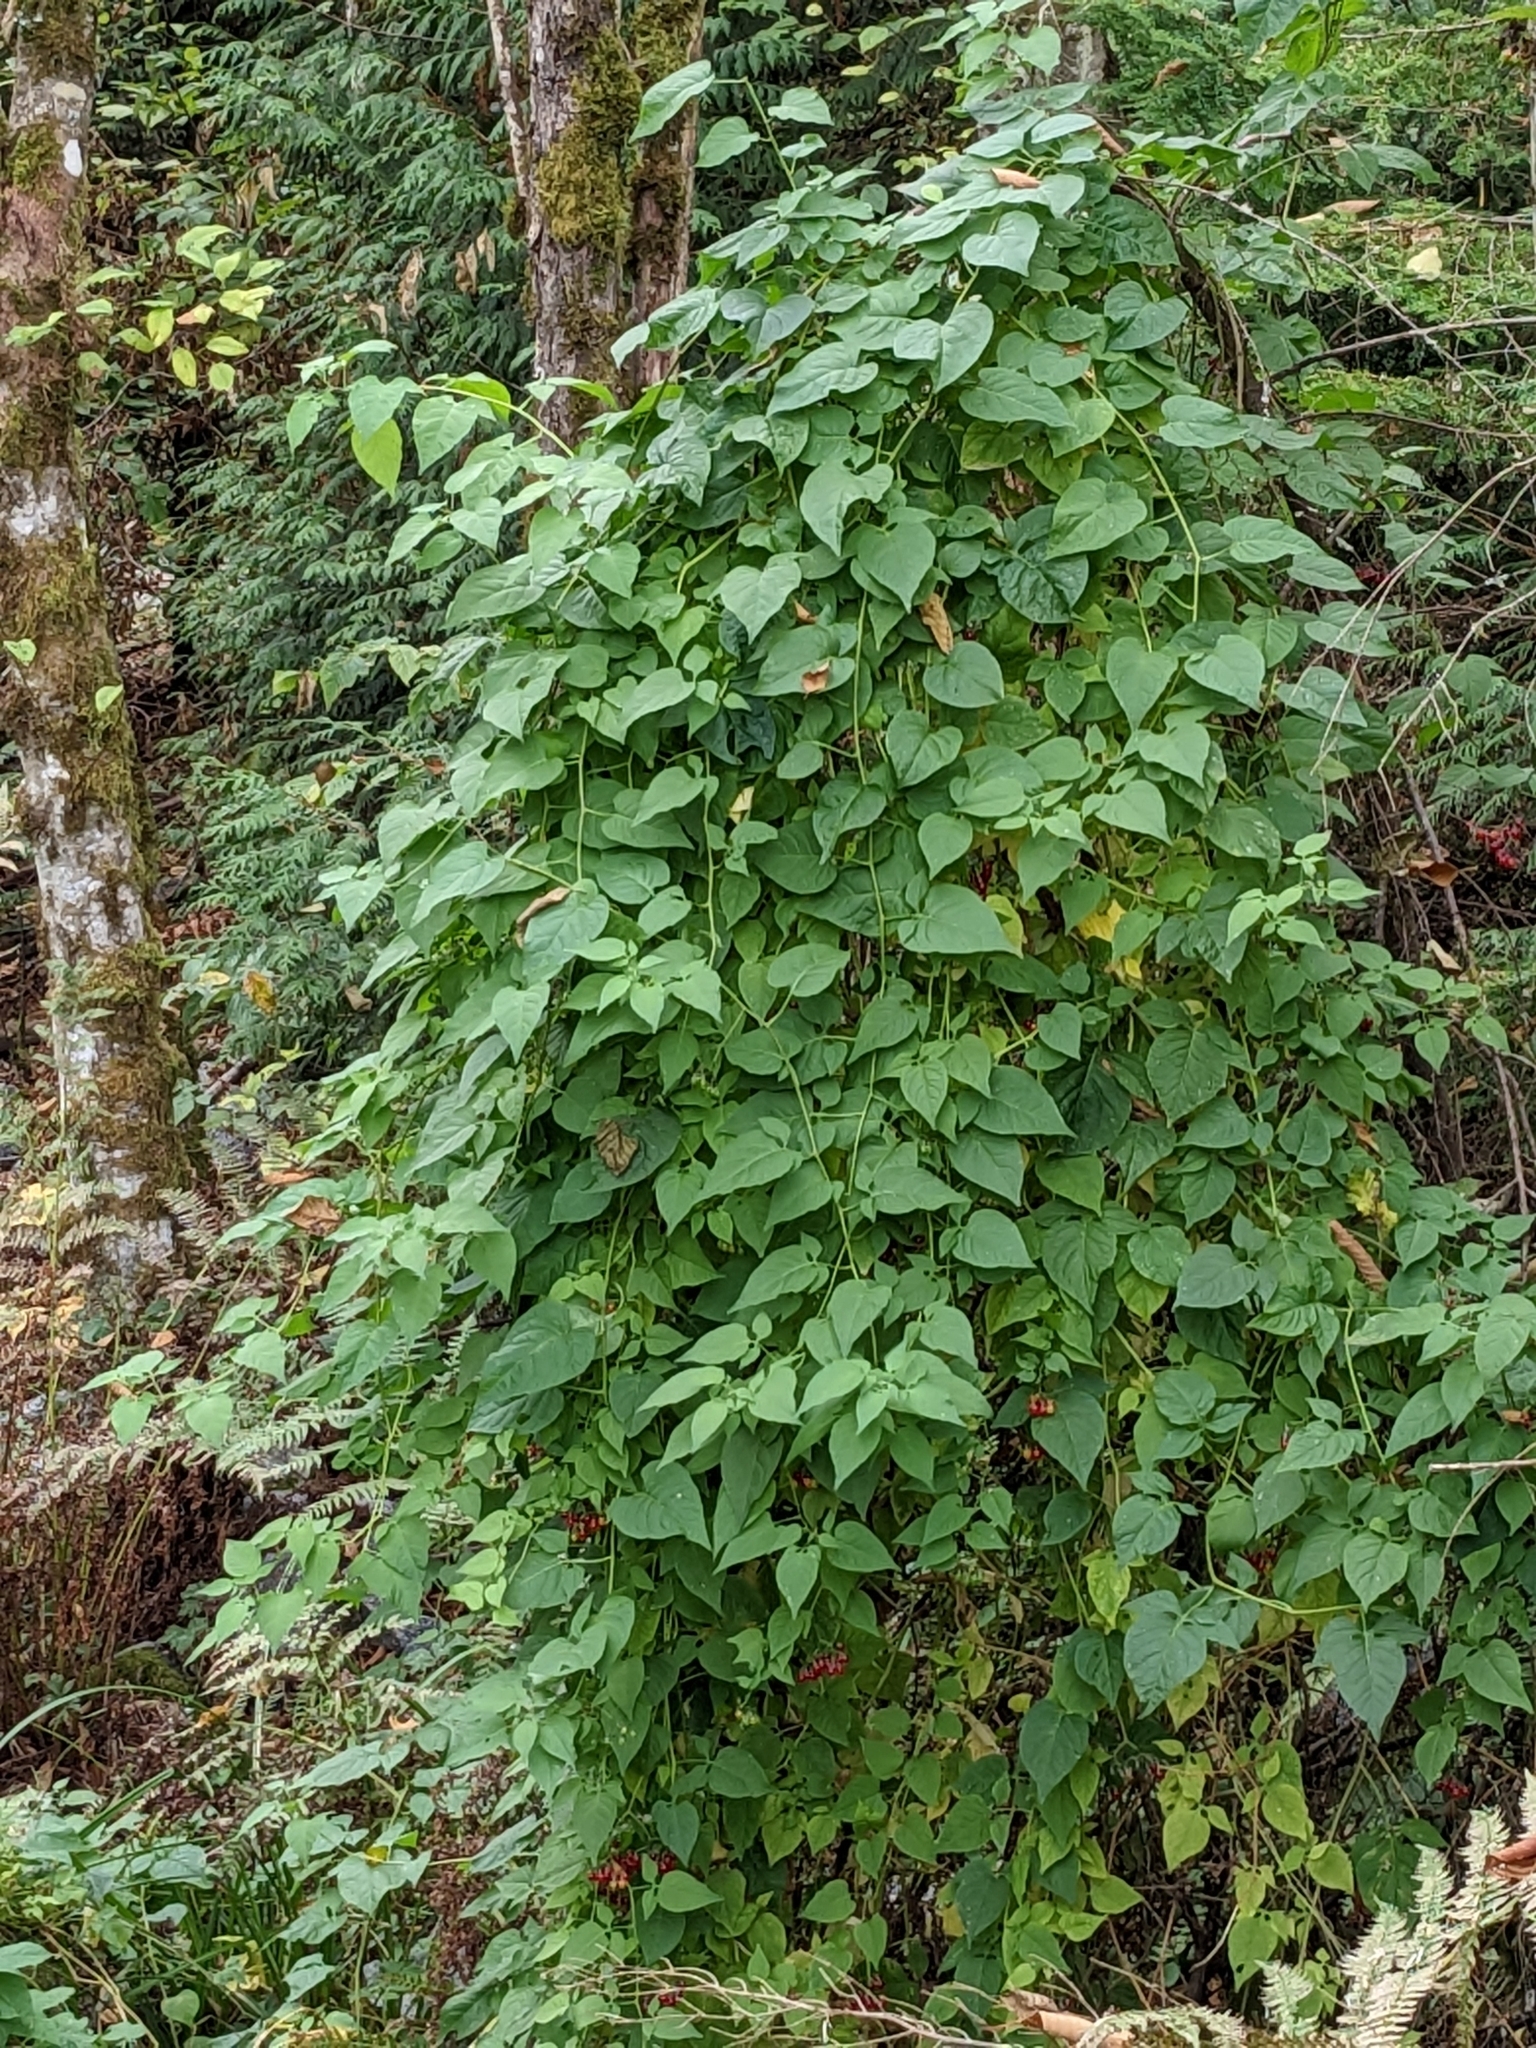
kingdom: Plantae
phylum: Tracheophyta
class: Magnoliopsida
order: Solanales
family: Solanaceae
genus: Solanum
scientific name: Solanum dulcamara
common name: Climbing nightshade
